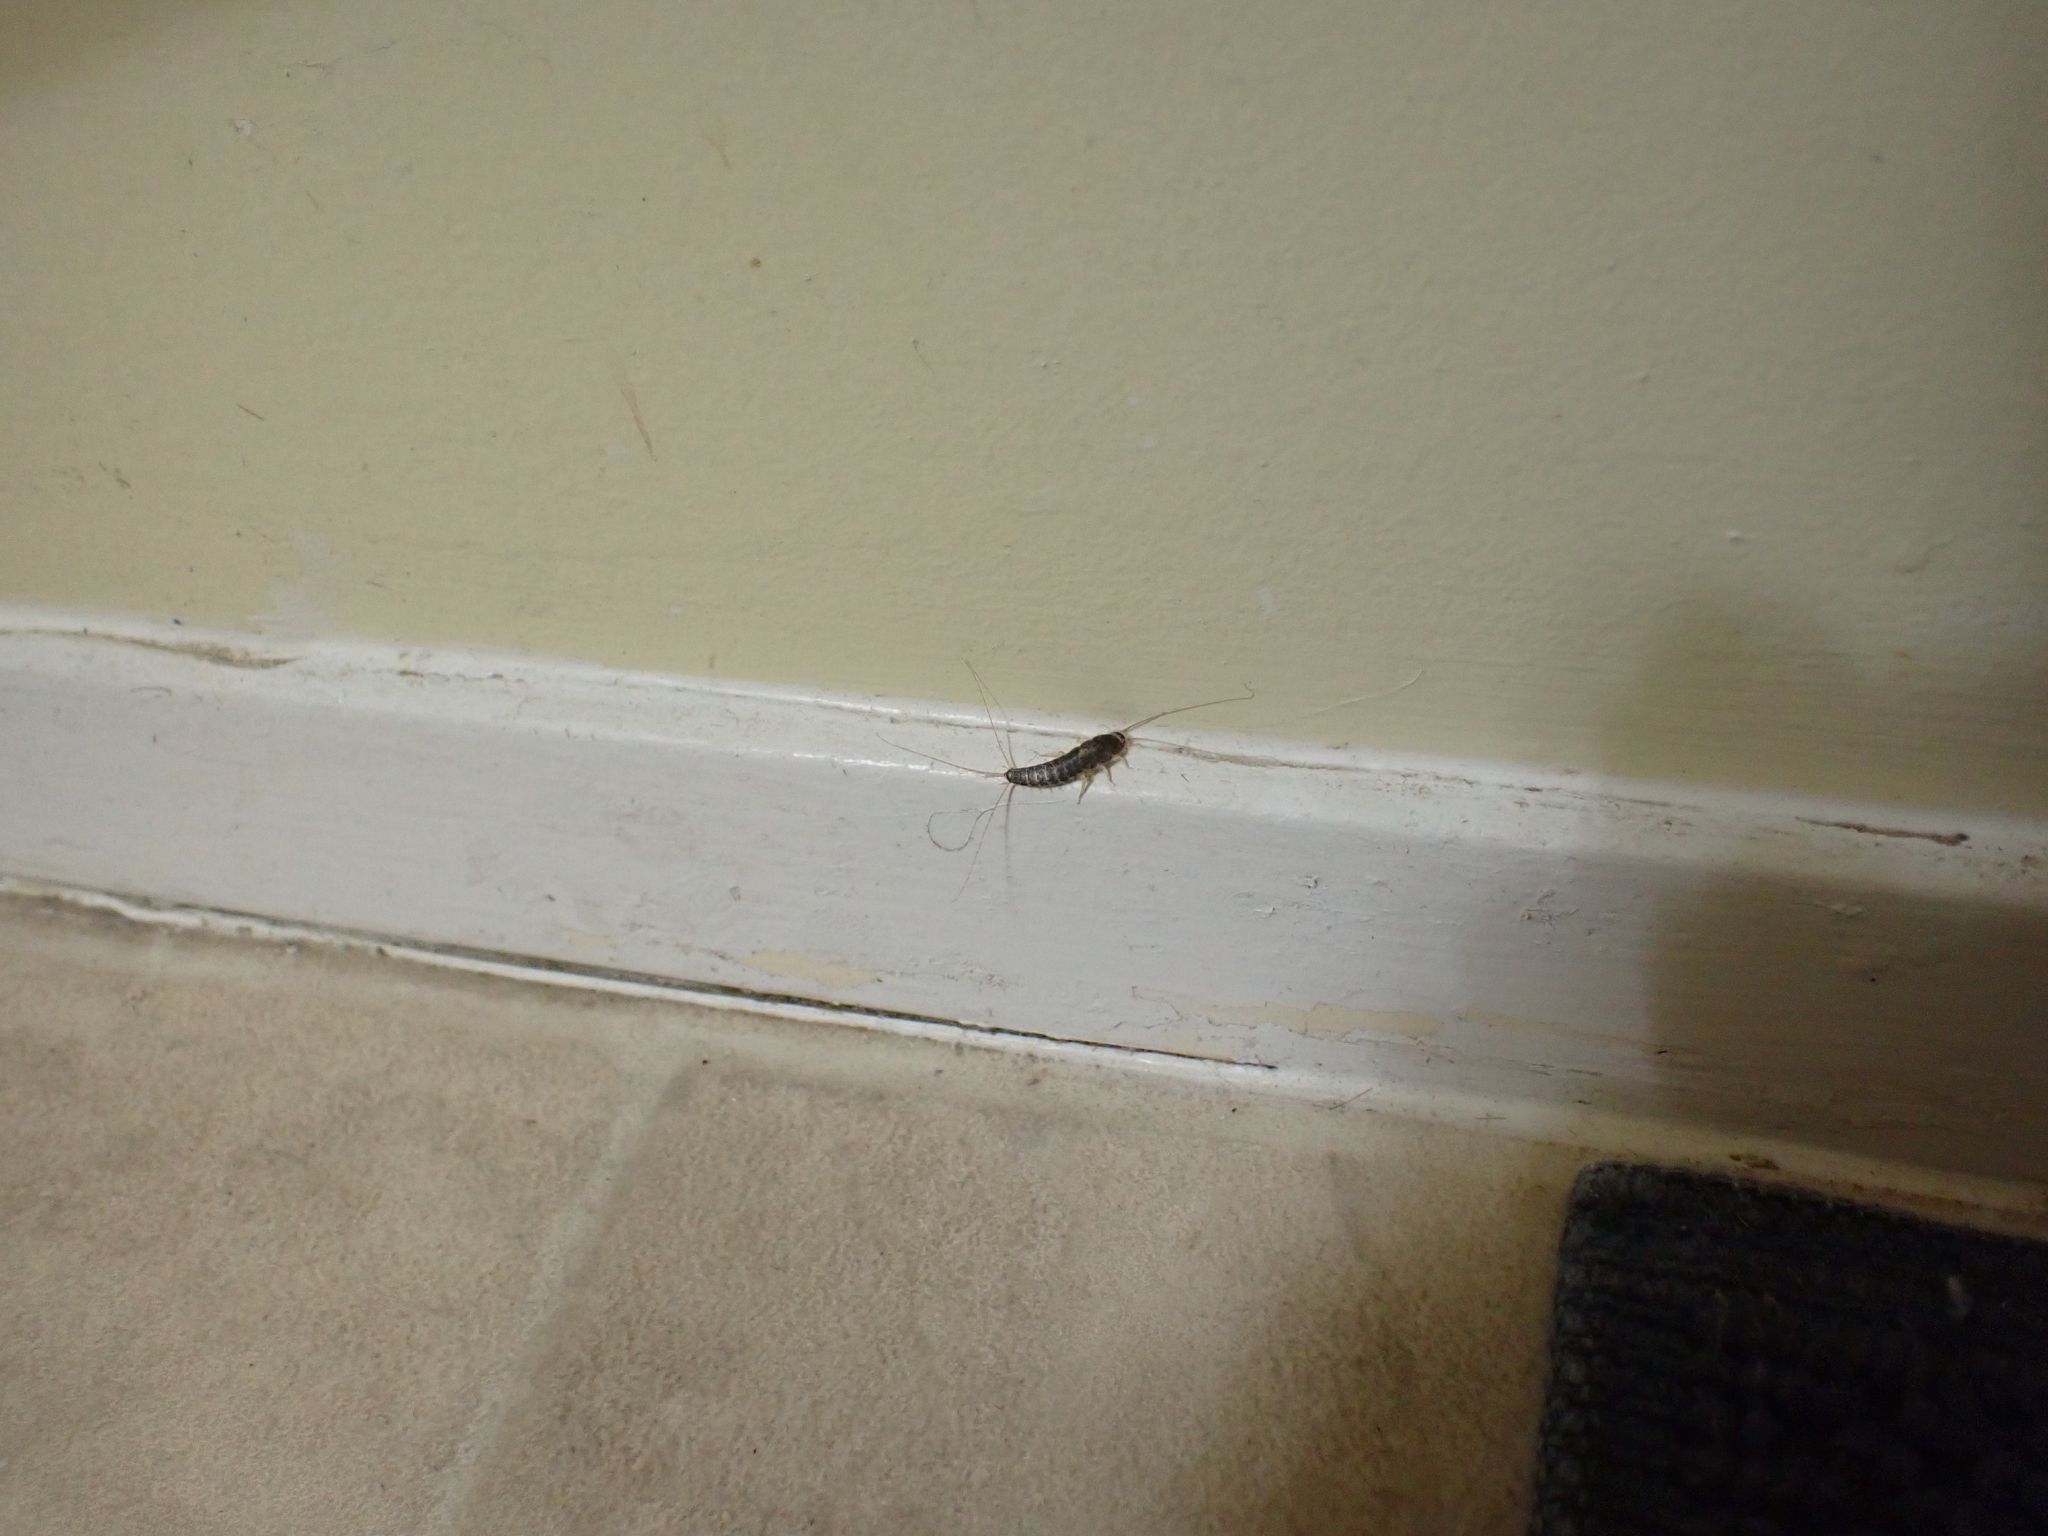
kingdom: Animalia
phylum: Arthropoda
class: Insecta
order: Zygentoma
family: Lepismatidae
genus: Ctenolepisma
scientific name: Ctenolepisma longicaudatum
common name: Silverfish
